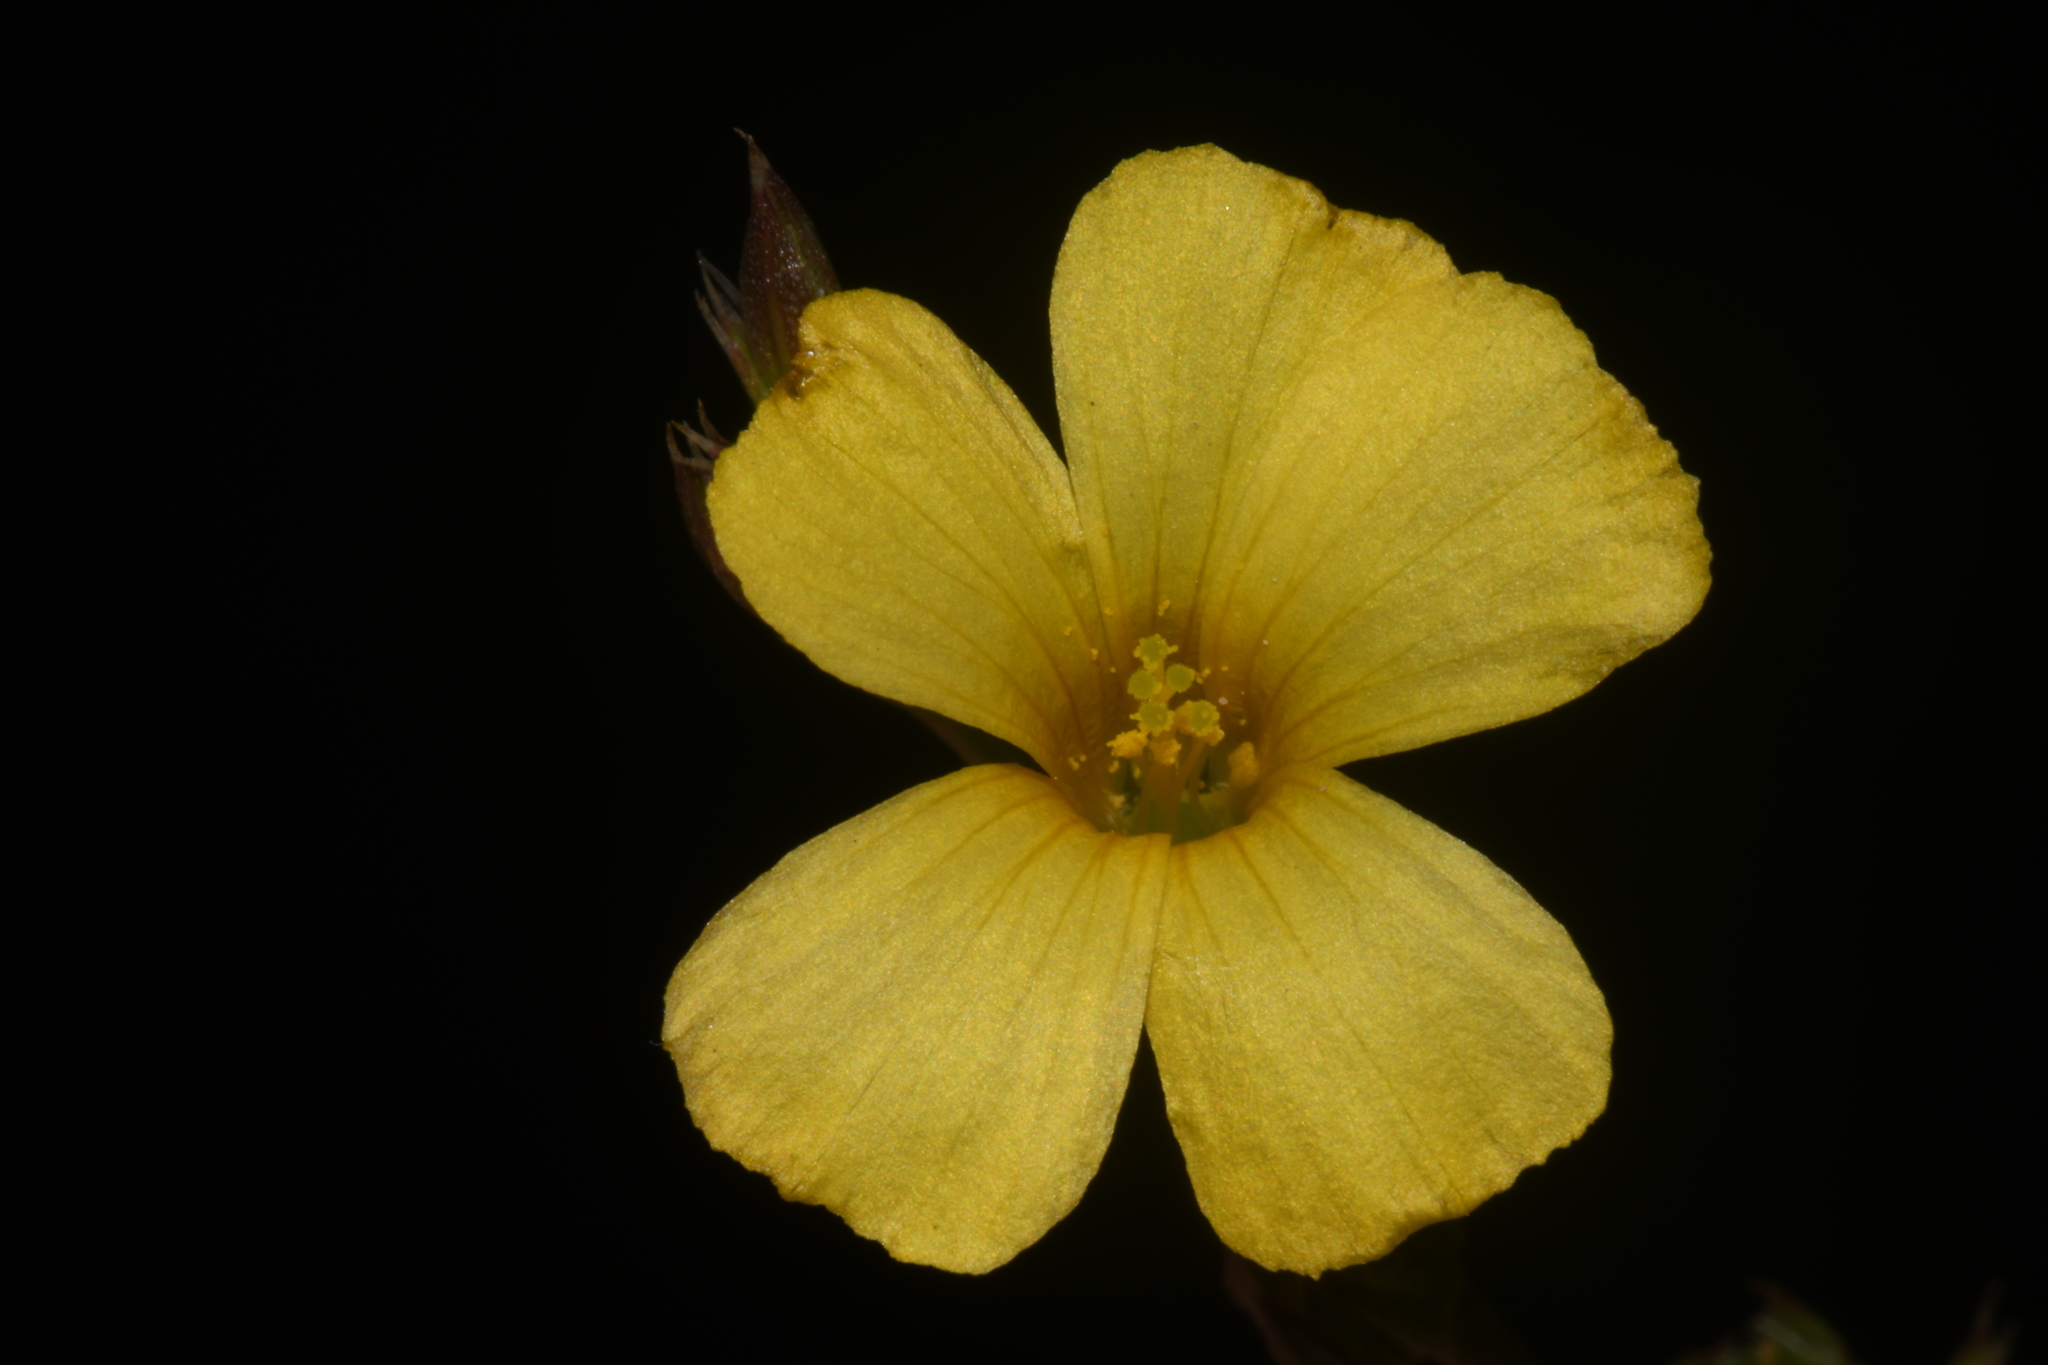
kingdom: Plantae
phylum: Tracheophyta
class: Magnoliopsida
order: Malpighiales
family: Linaceae
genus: Linum
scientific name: Linum rupestre
